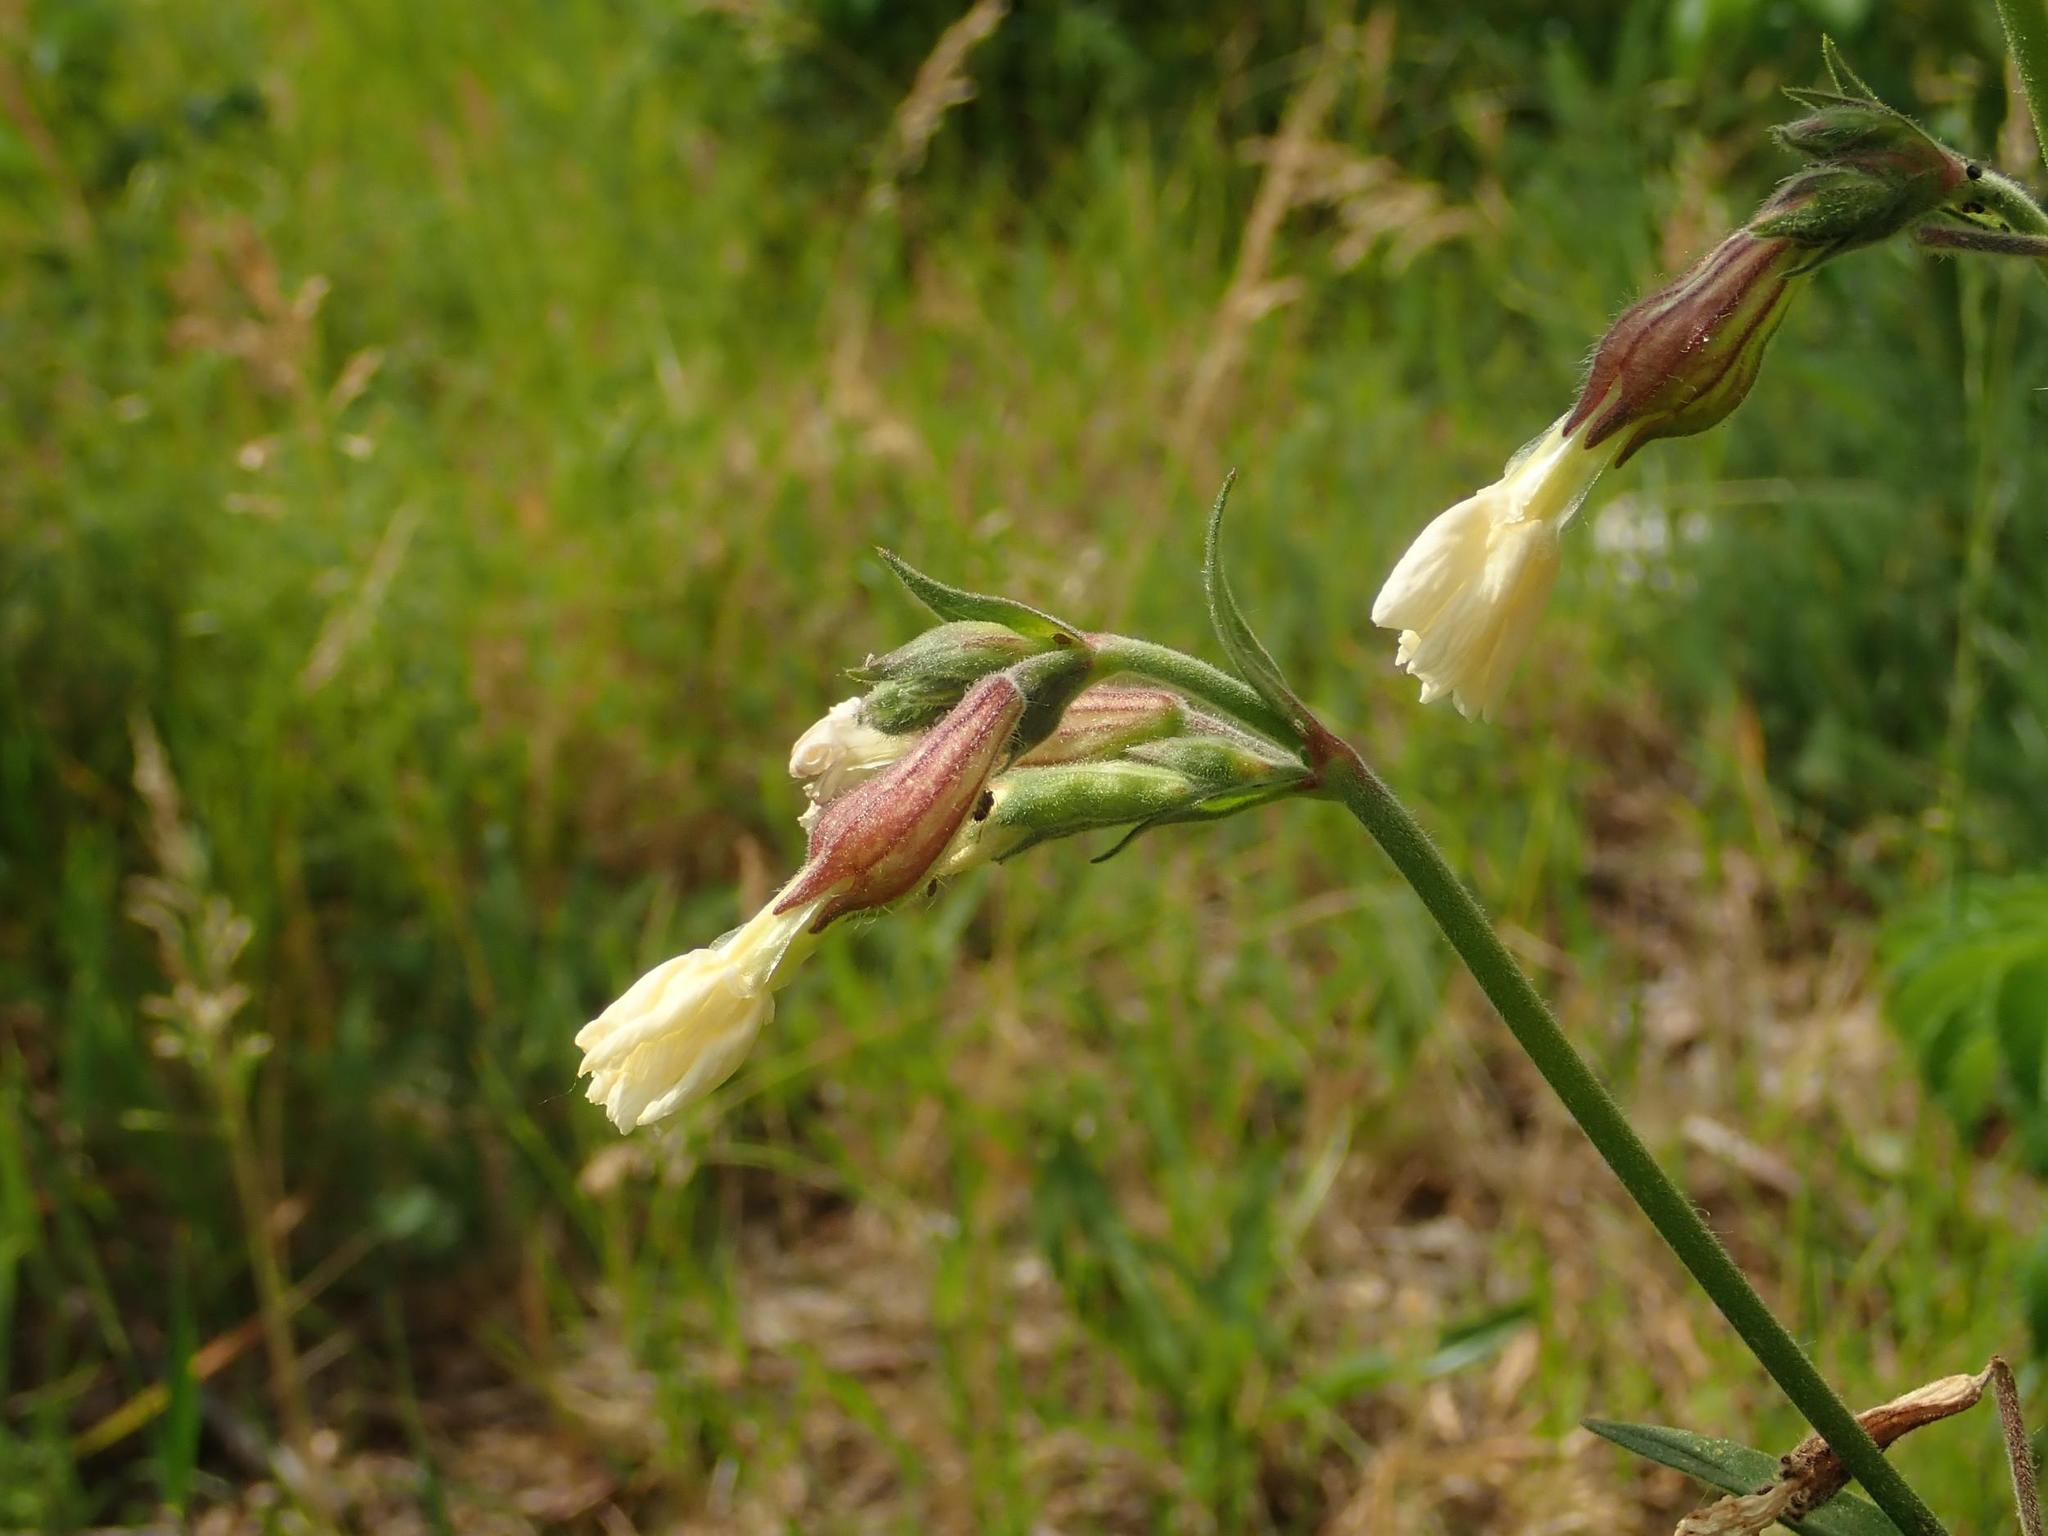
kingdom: Plantae
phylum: Tracheophyta
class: Magnoliopsida
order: Caryophyllales
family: Caryophyllaceae
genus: Silene
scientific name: Silene latifolia
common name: White campion
